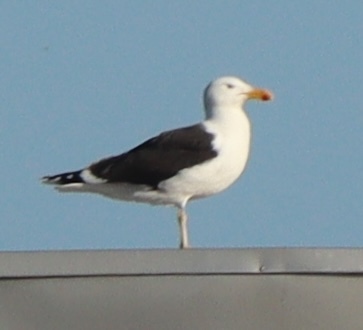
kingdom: Animalia
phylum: Chordata
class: Aves
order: Charadriiformes
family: Laridae
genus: Larus
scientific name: Larus marinus
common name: Great black-backed gull
